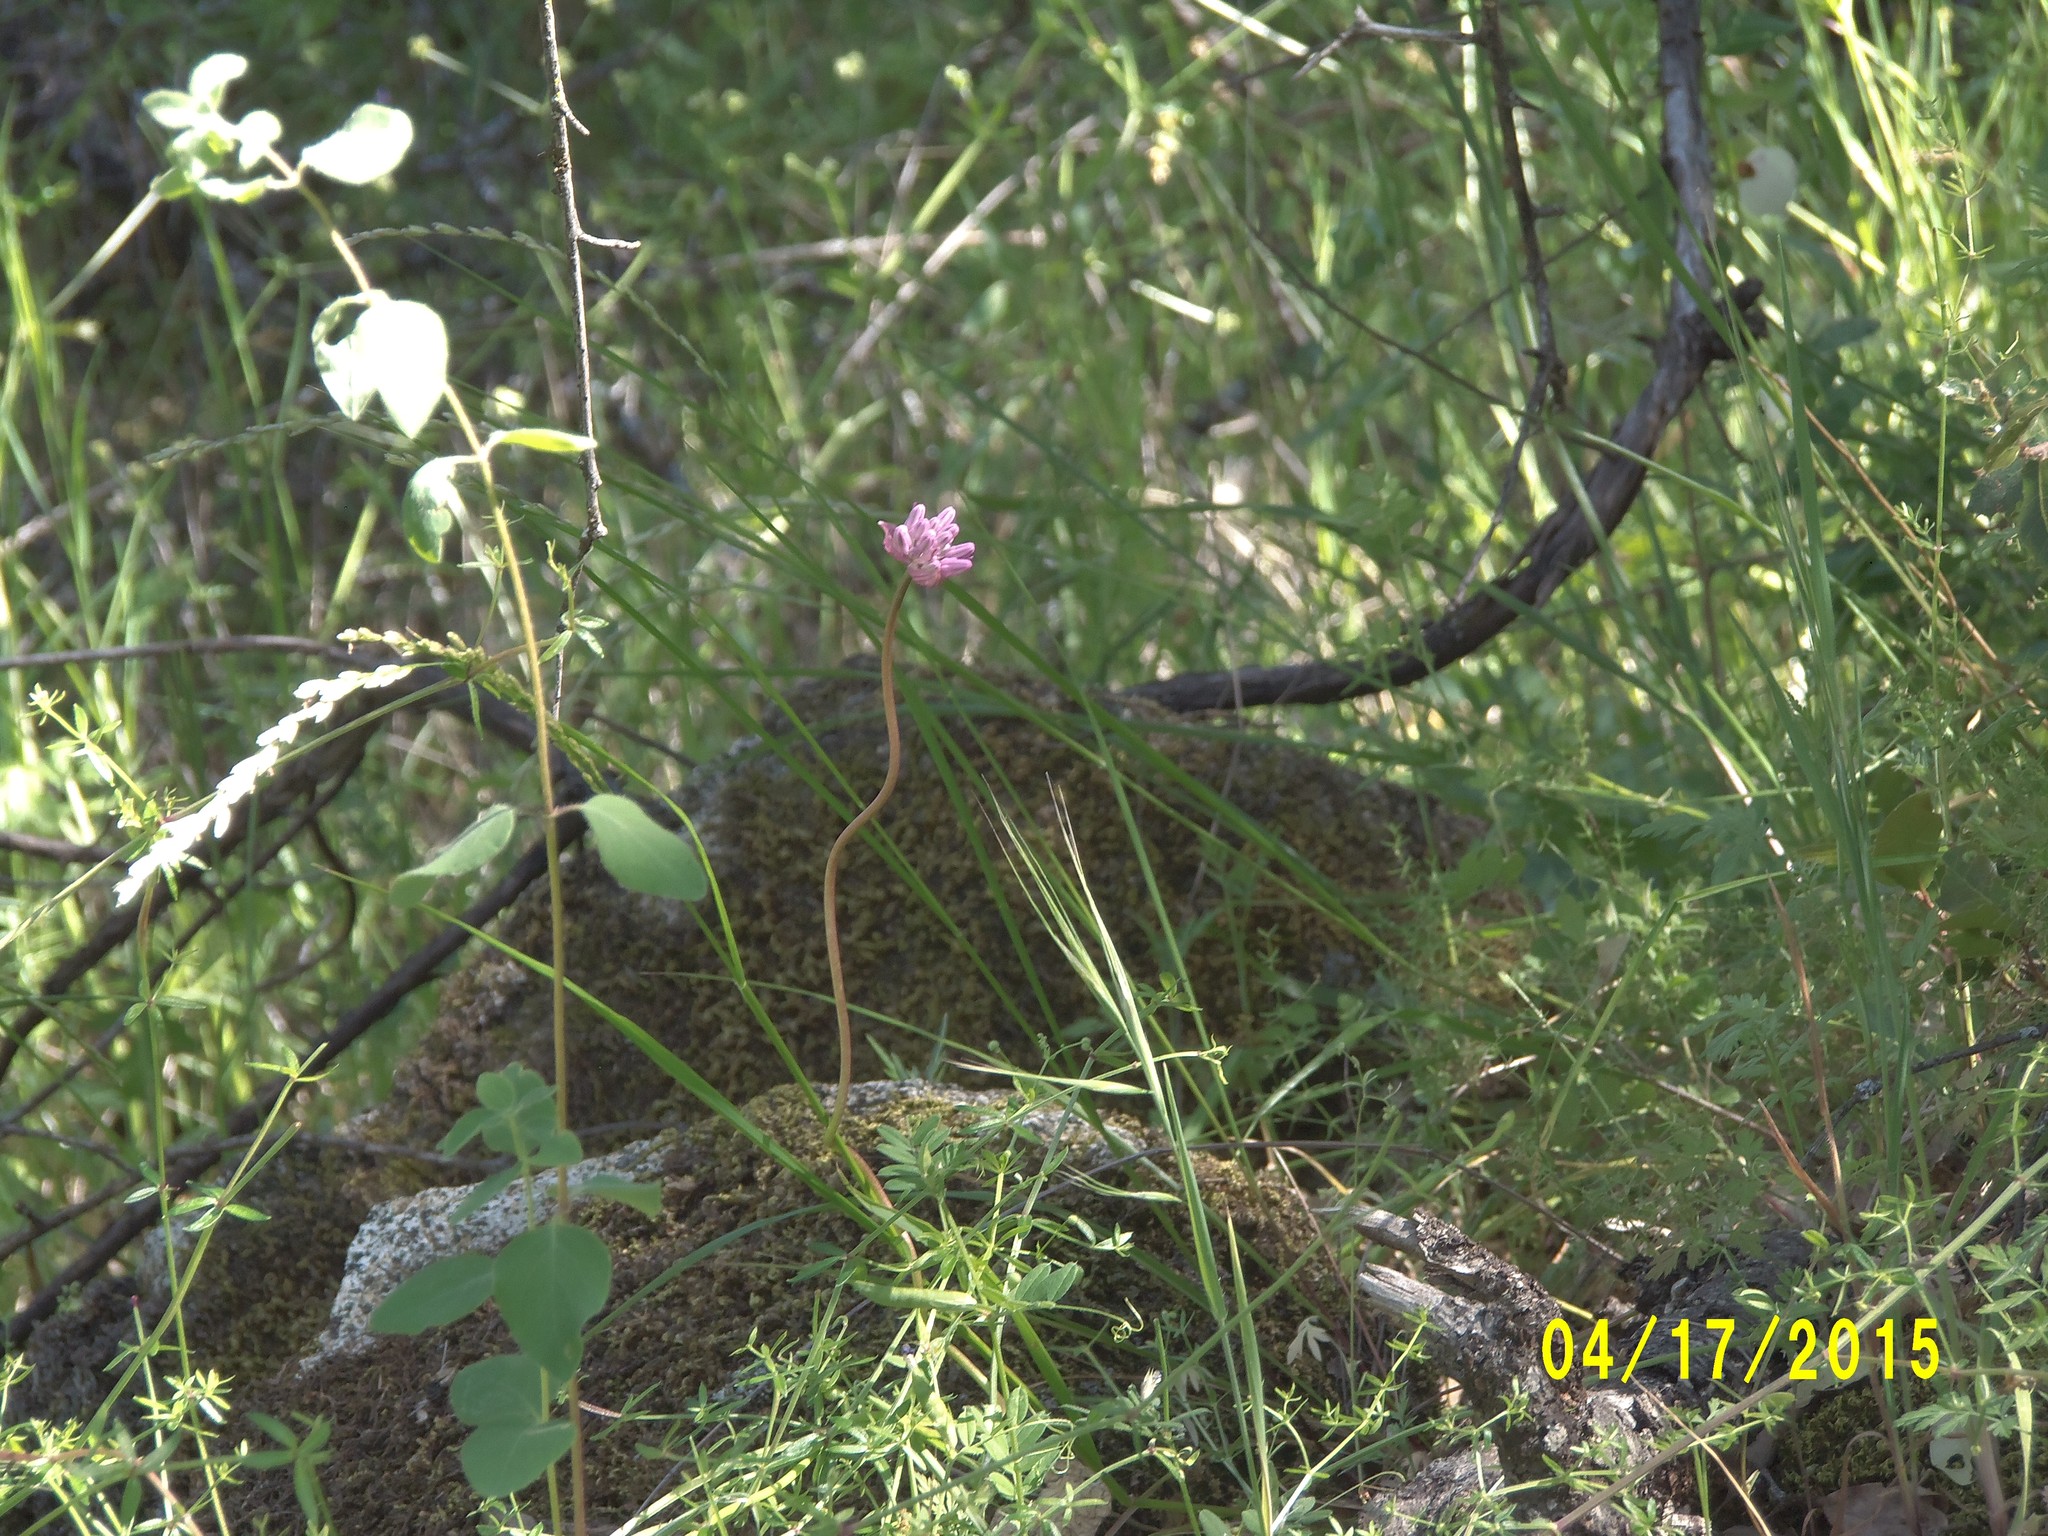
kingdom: Plantae
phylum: Tracheophyta
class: Liliopsida
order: Asparagales
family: Asparagaceae
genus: Dichelostemma
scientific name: Dichelostemma volubile
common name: Trining brodiaea
